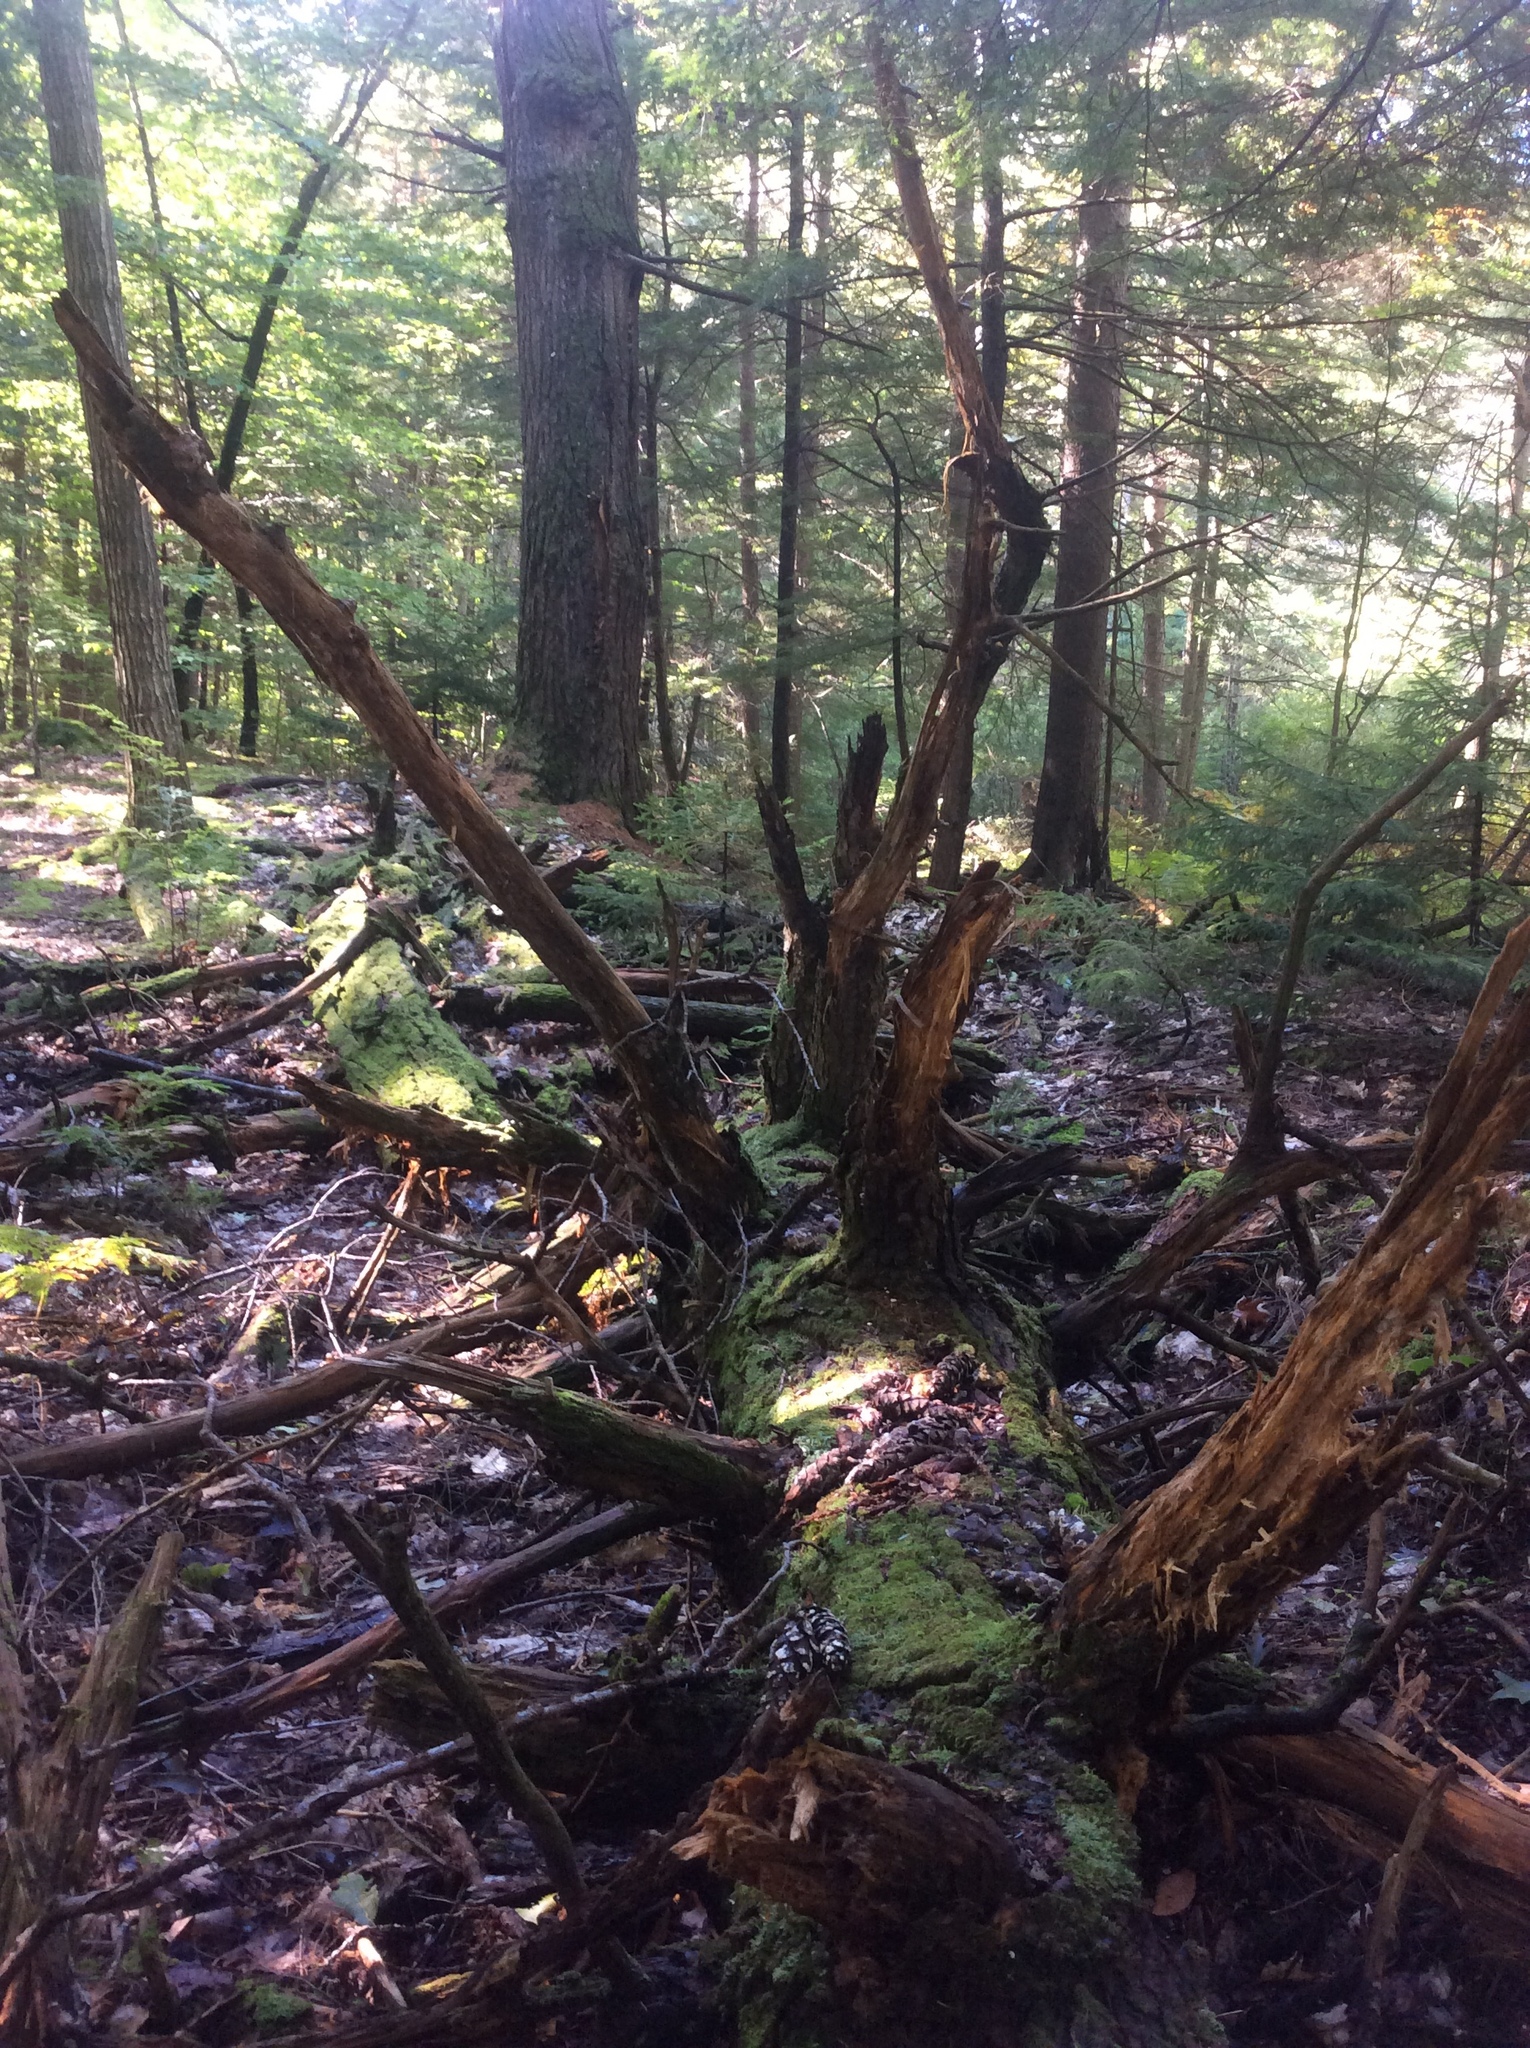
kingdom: Plantae
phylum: Tracheophyta
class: Pinopsida
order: Pinales
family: Pinaceae
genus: Tsuga
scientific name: Tsuga canadensis
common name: Eastern hemlock
